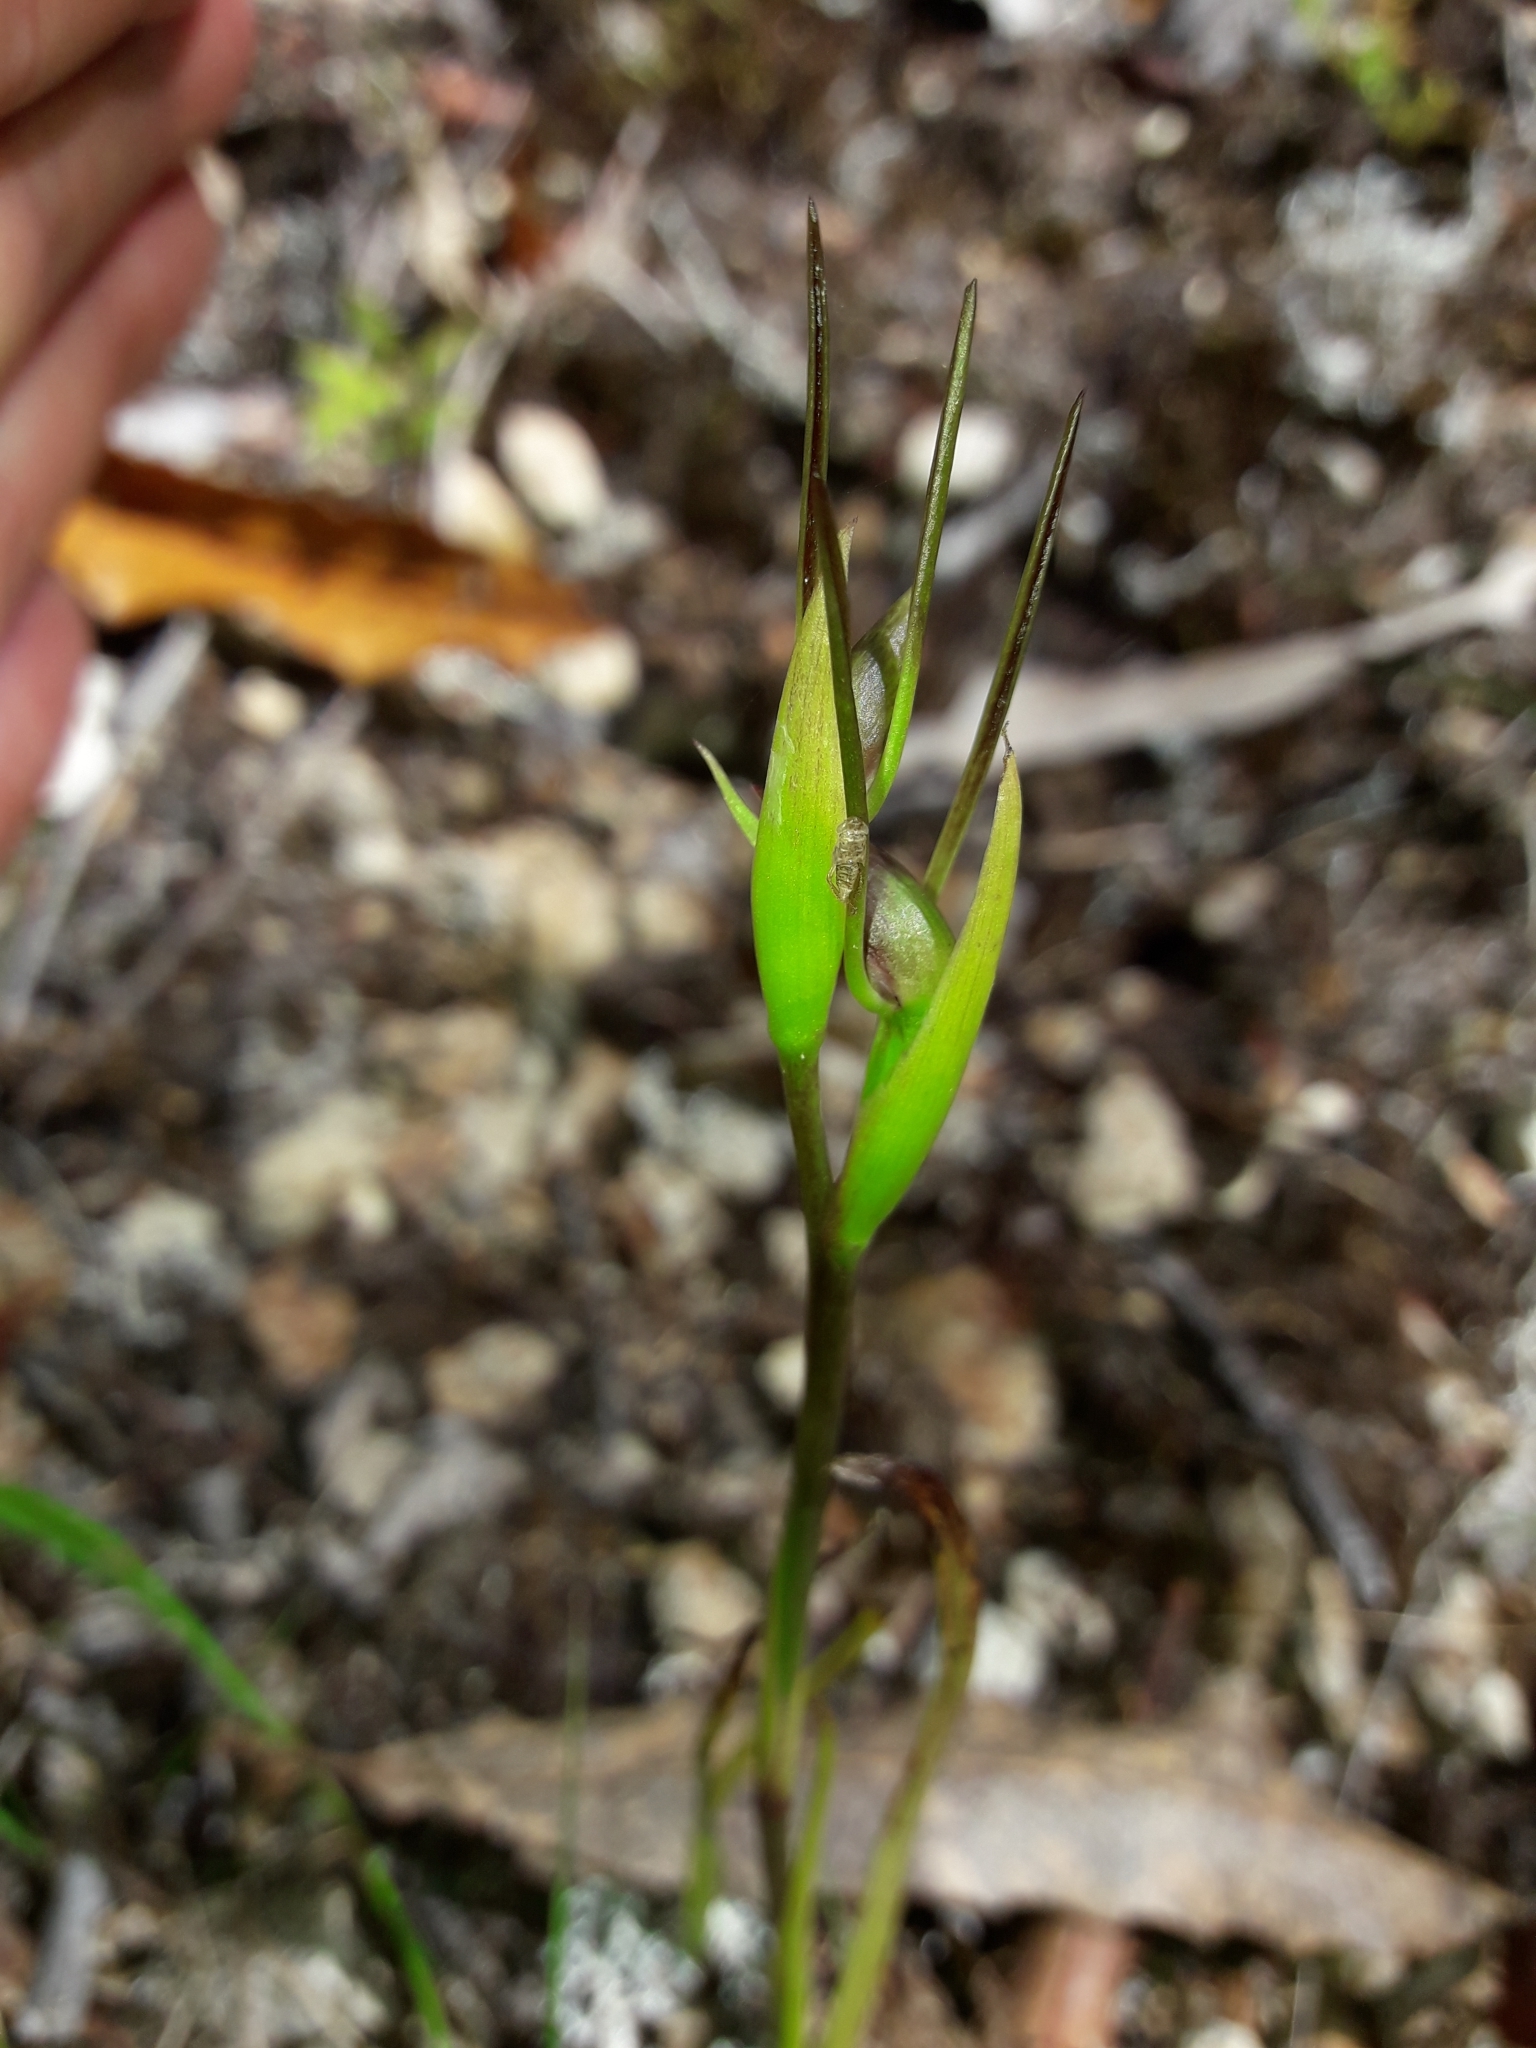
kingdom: Plantae
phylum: Tracheophyta
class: Liliopsida
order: Asparagales
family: Orchidaceae
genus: Orthoceras
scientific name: Orthoceras novae-zeelandiae
